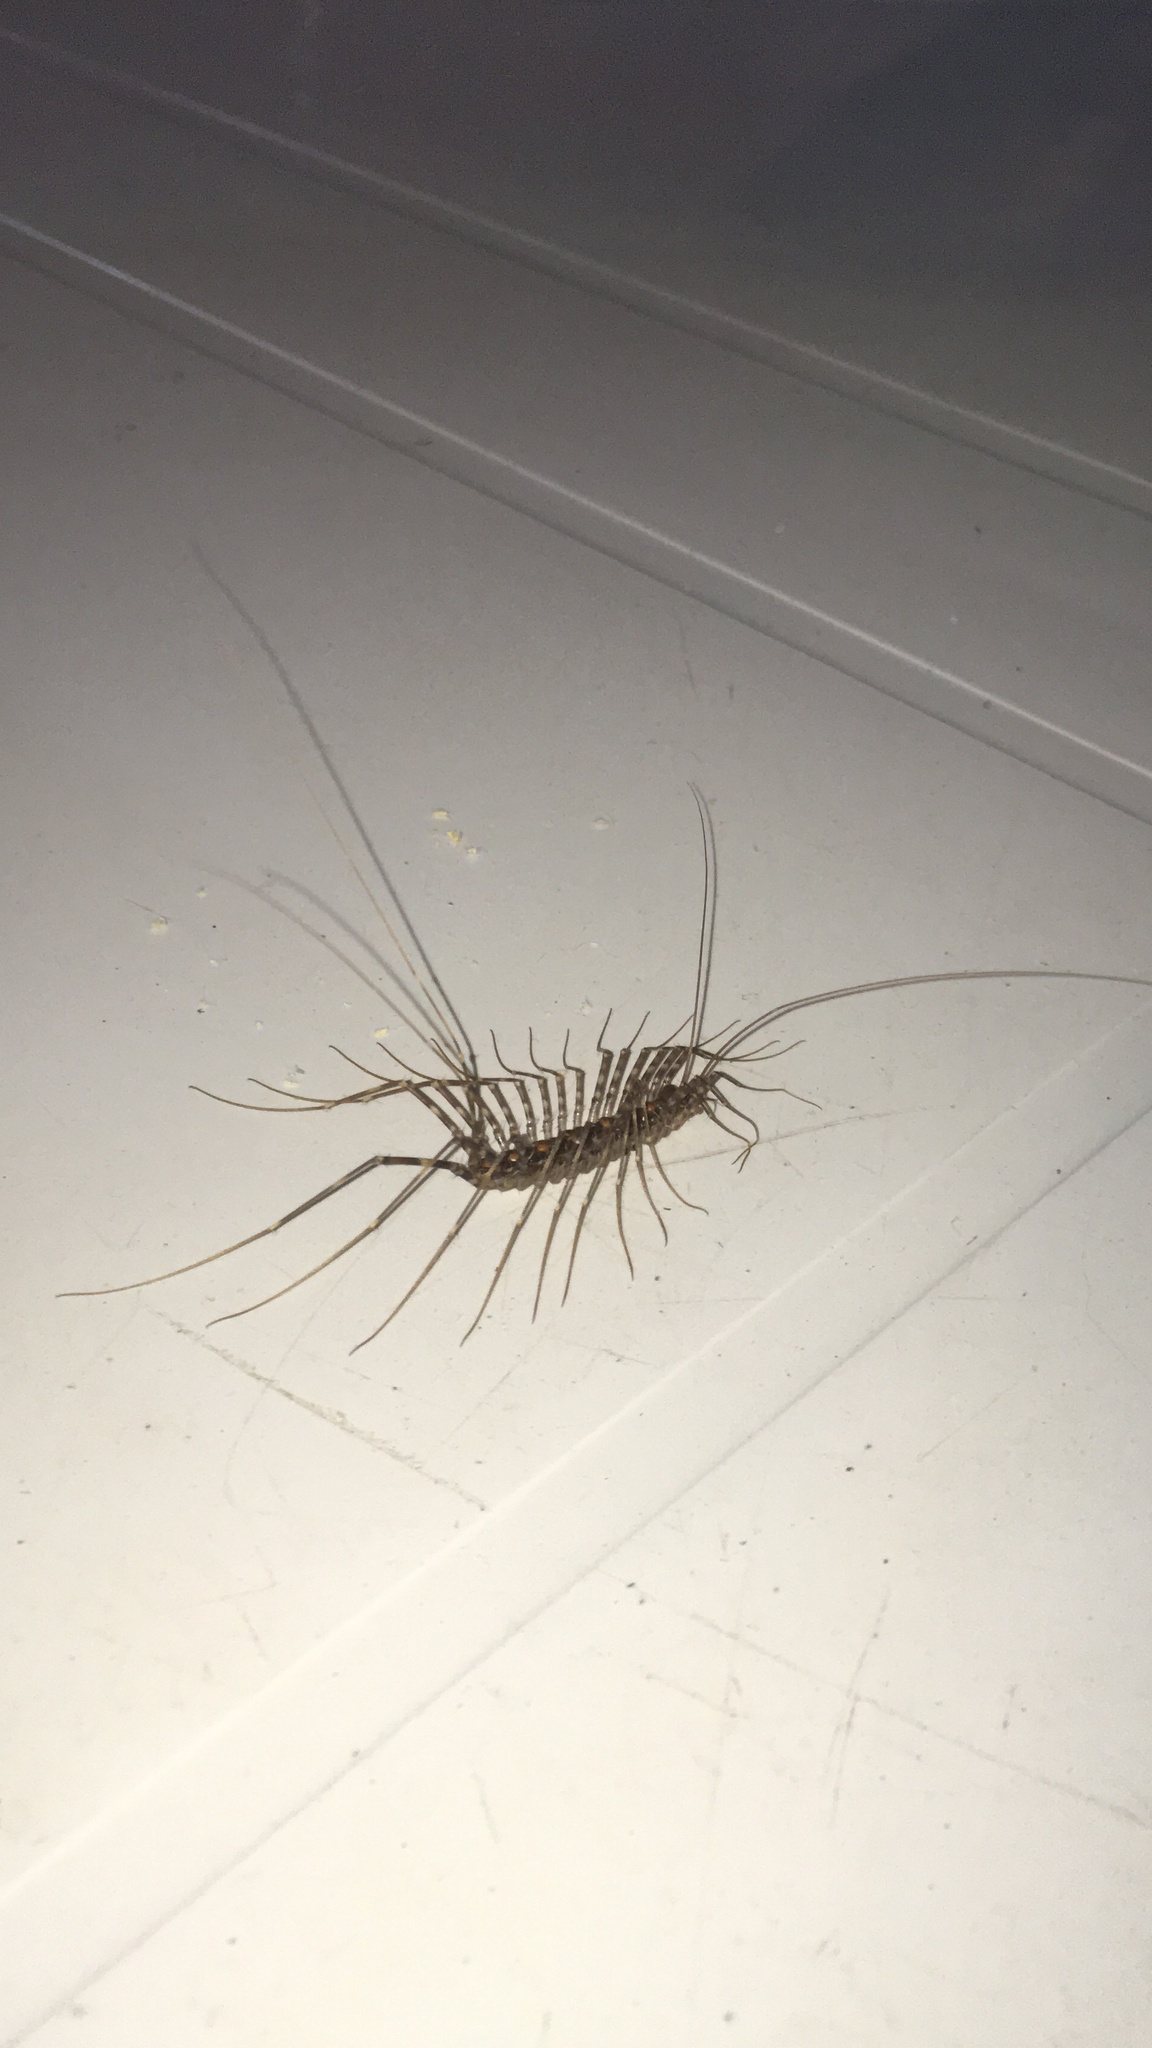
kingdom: Animalia
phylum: Arthropoda
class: Chilopoda
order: Scutigeromorpha
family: Pselliodidae
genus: Sphendononema
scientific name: Sphendononema guildingii
